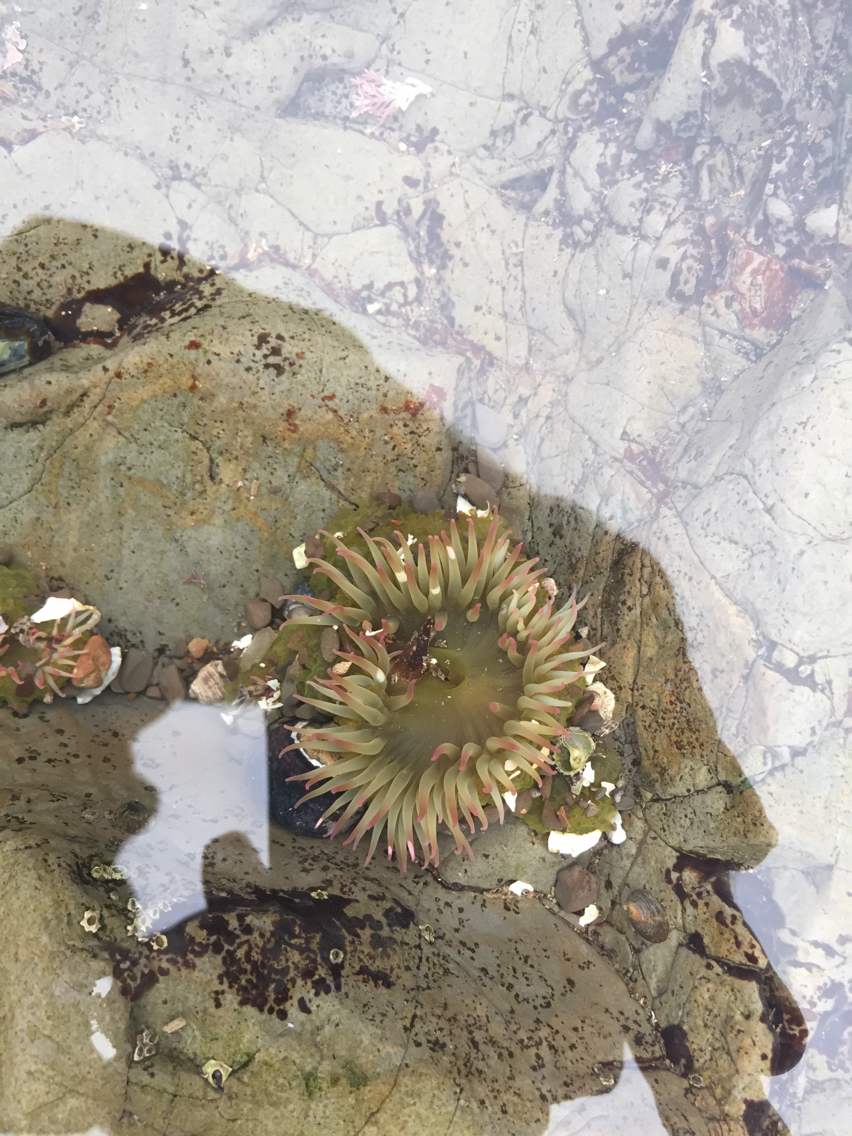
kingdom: Animalia
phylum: Cnidaria
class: Anthozoa
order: Actiniaria
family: Actiniidae
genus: Anthopleura
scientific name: Anthopleura elegantissima
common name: Clonal anemone
